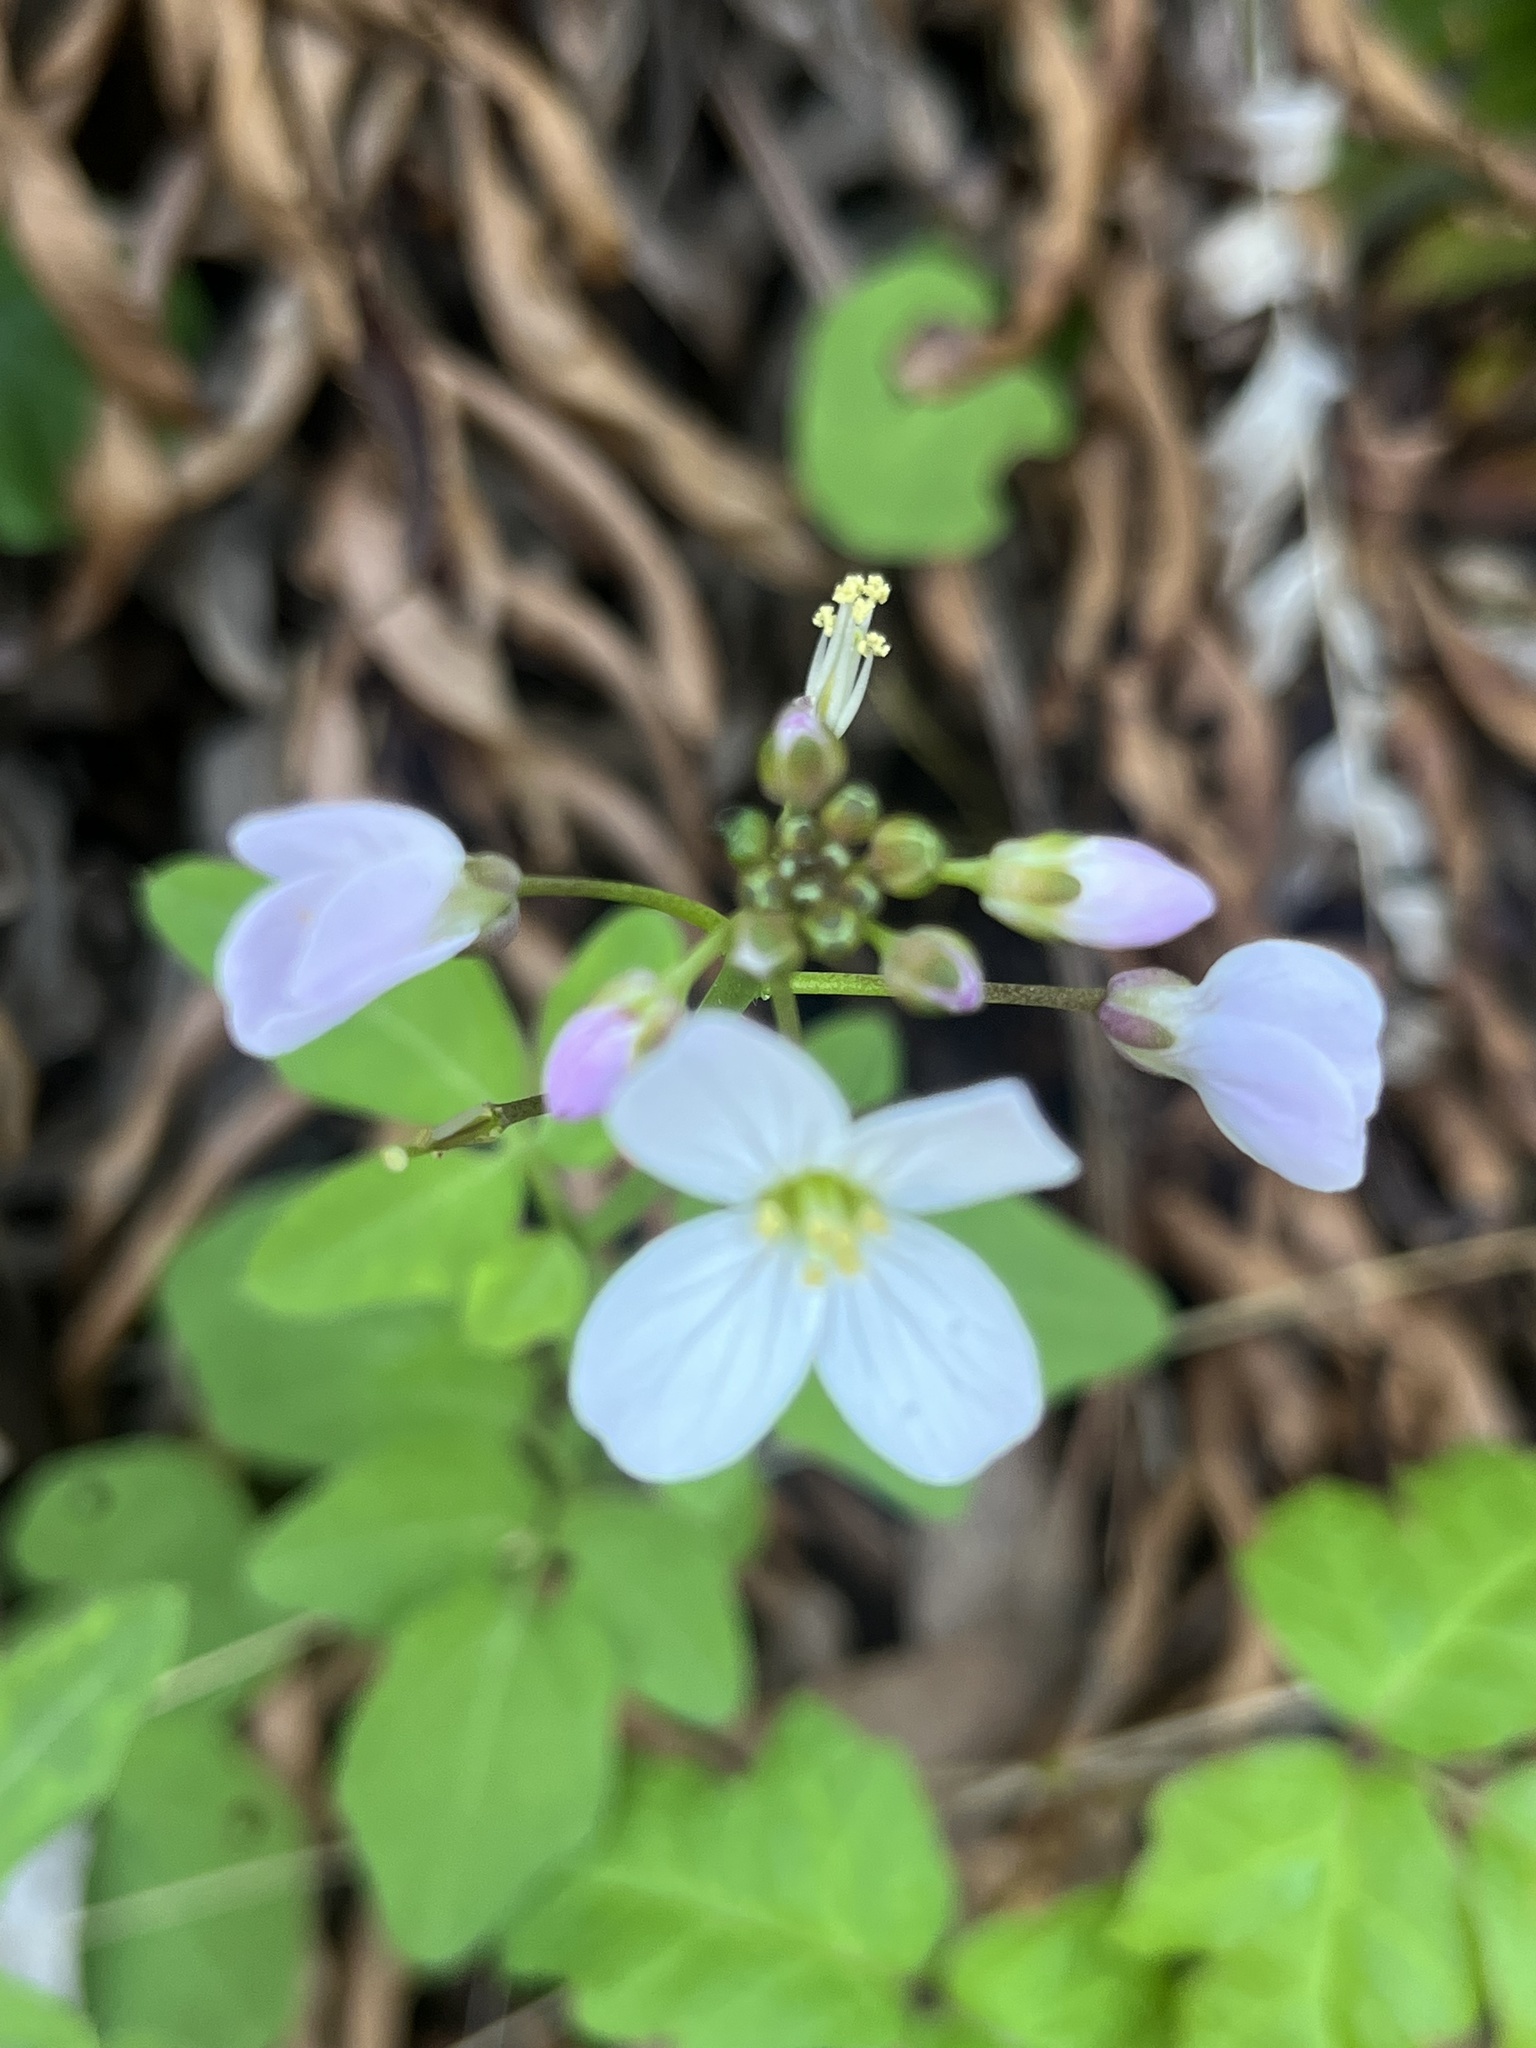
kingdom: Plantae
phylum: Tracheophyta
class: Magnoliopsida
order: Brassicales
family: Brassicaceae
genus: Cardamine
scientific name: Cardamine californica
